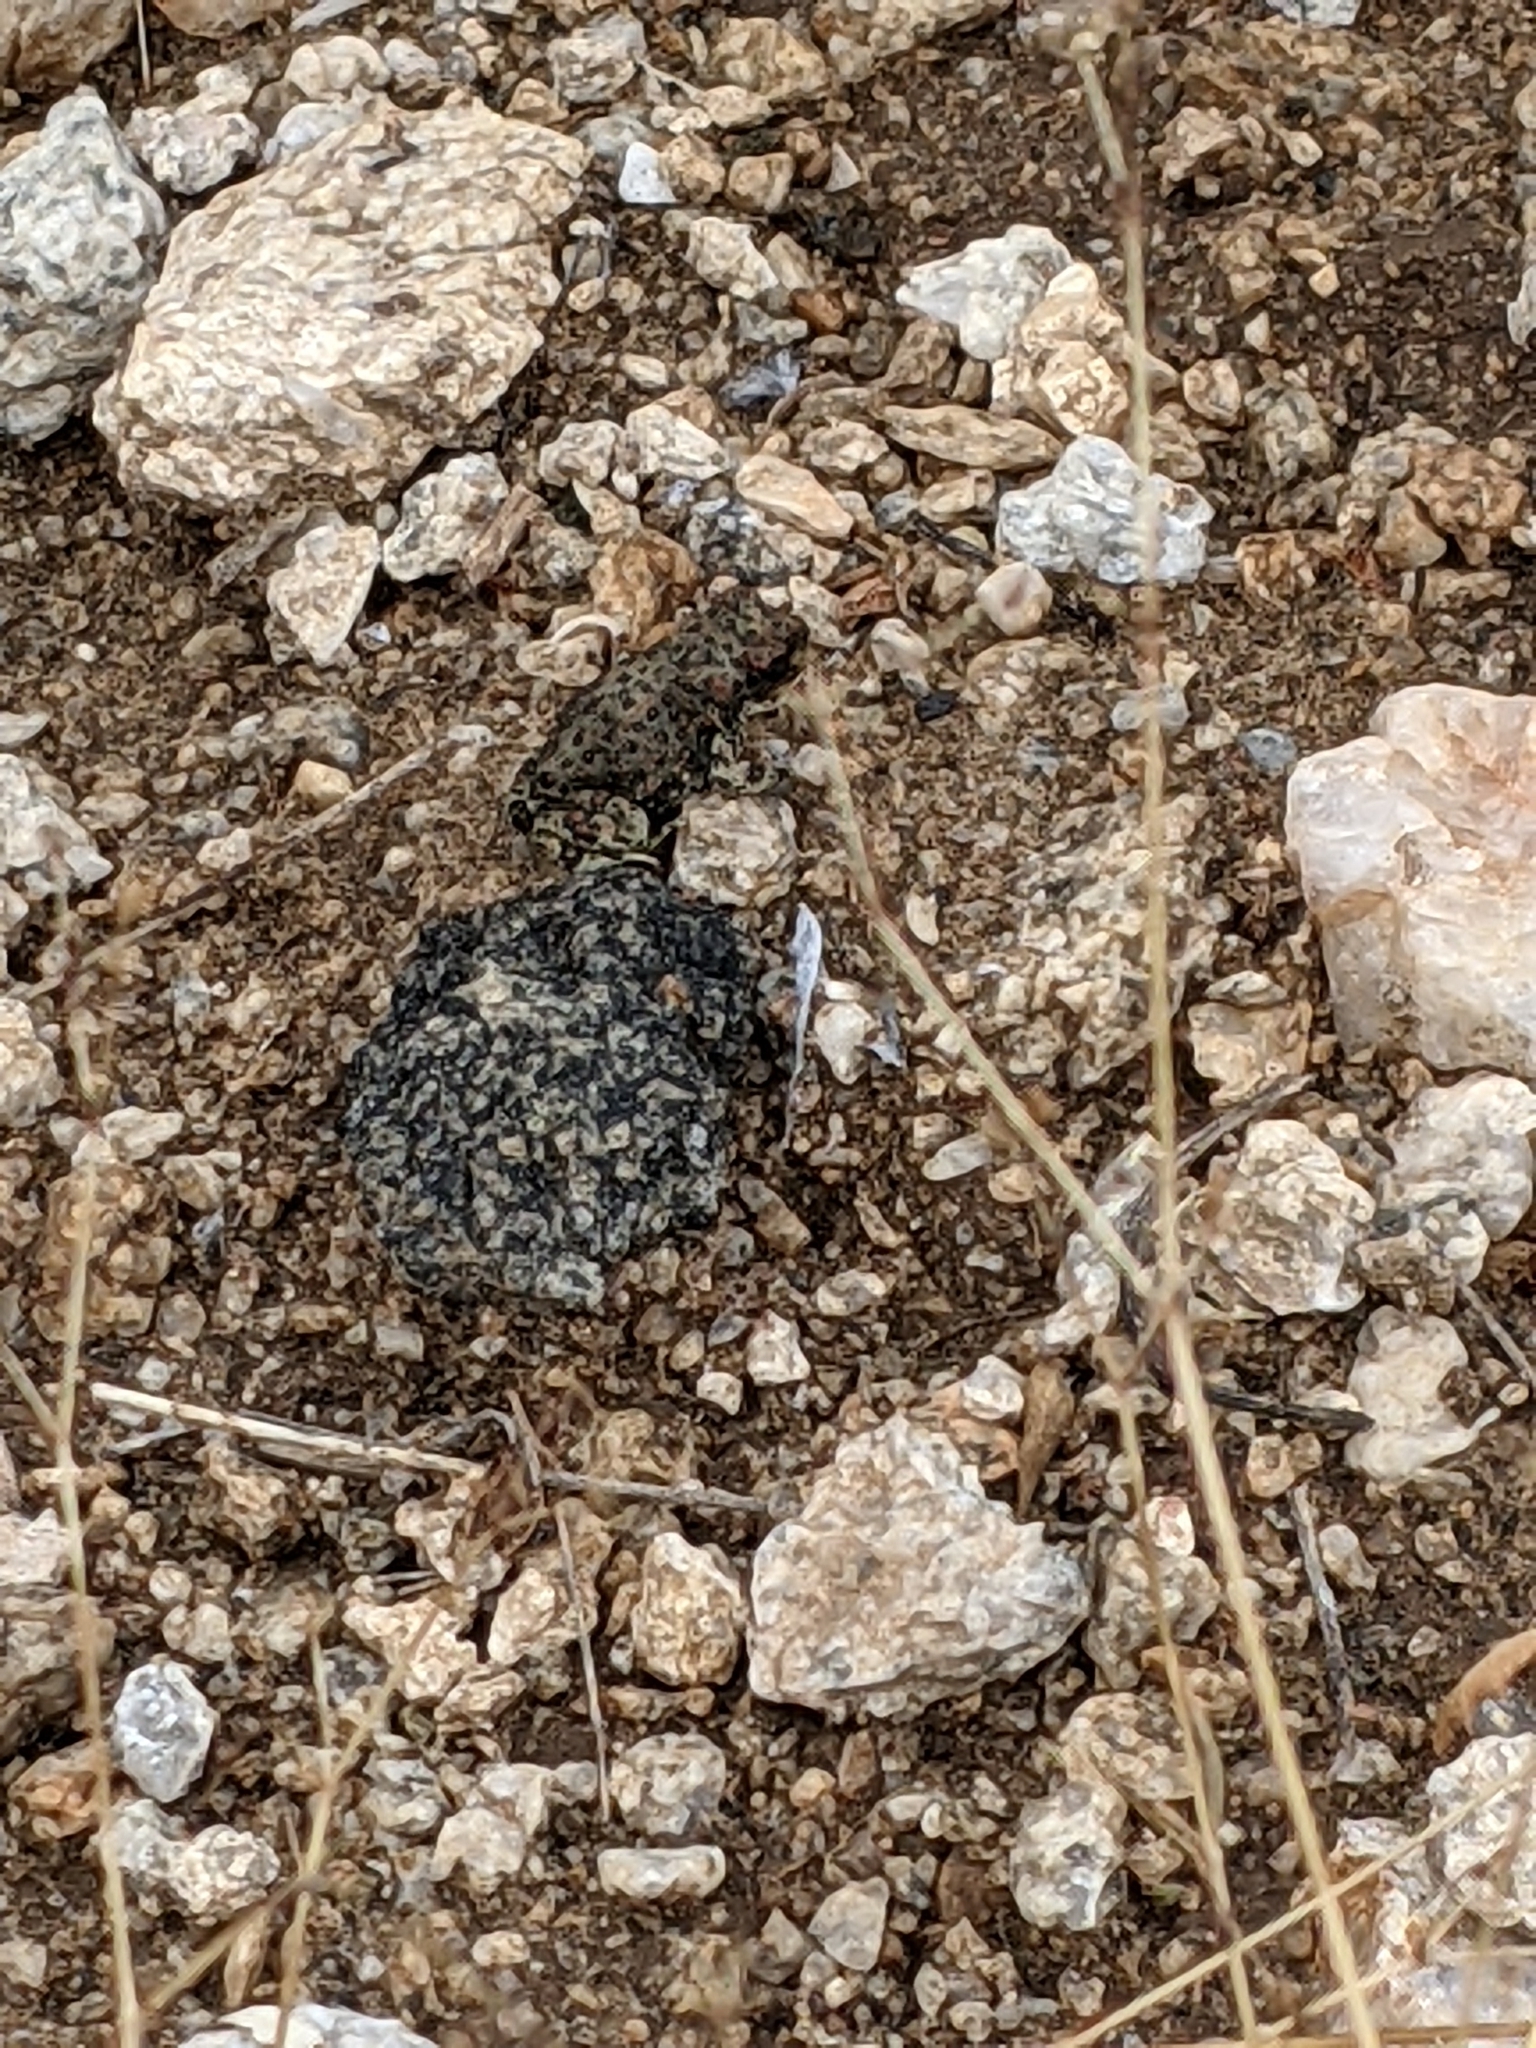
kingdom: Animalia
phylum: Chordata
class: Amphibia
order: Anura
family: Bufonidae
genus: Anaxyrus
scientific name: Anaxyrus punctatus
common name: Red-spotted toad
